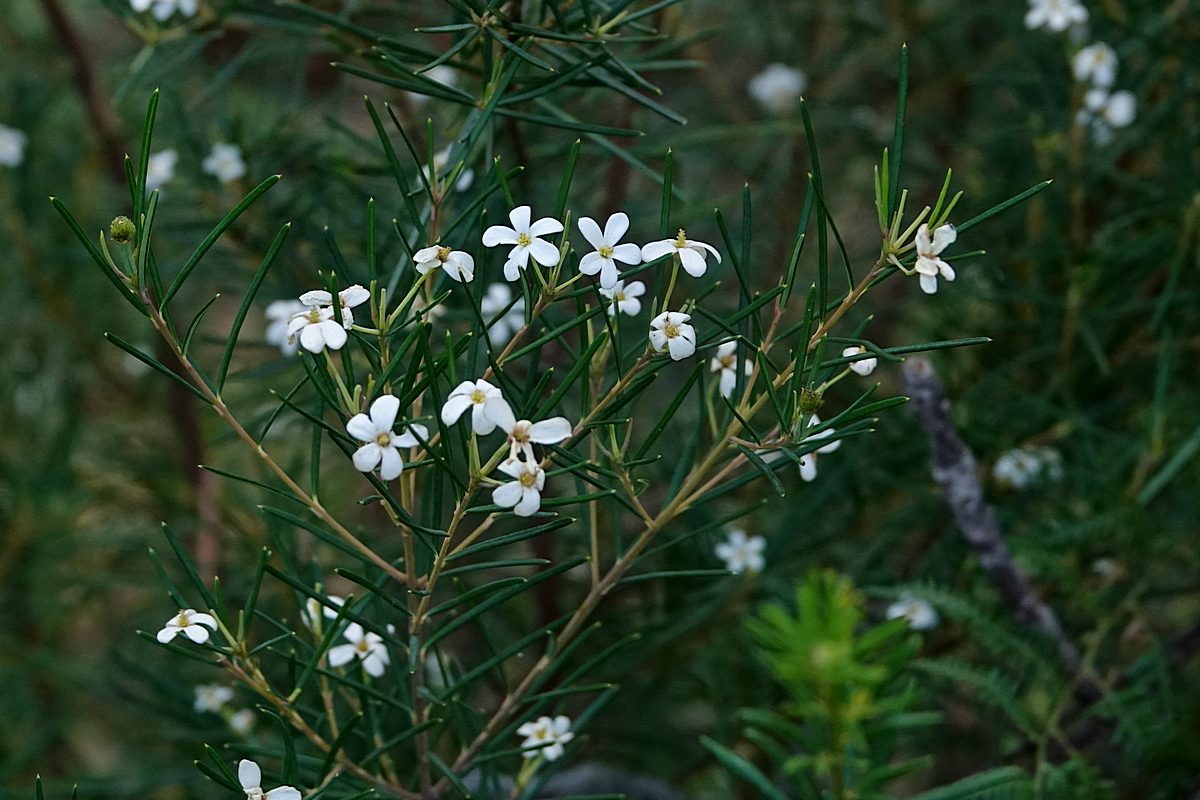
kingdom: Plantae
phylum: Tracheophyta
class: Magnoliopsida
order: Malpighiales
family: Euphorbiaceae
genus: Ricinocarpos
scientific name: Ricinocarpos pinifolius
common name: Weddingbush
